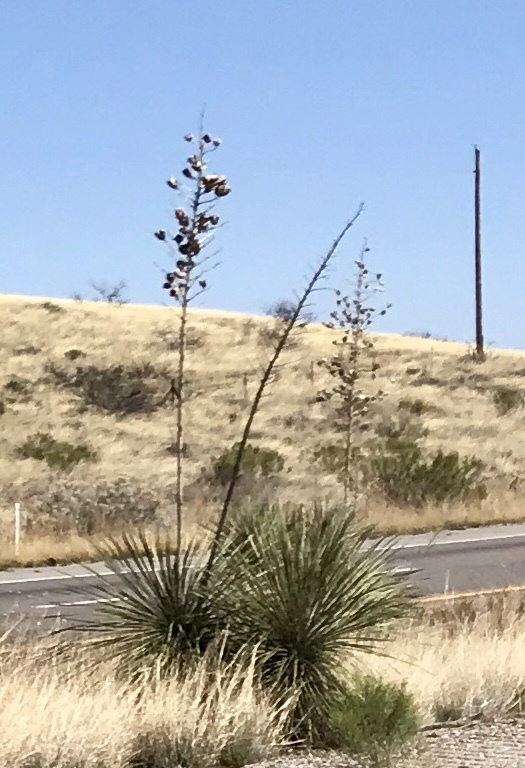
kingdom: Plantae
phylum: Tracheophyta
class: Liliopsida
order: Asparagales
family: Asparagaceae
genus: Yucca
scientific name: Yucca elata
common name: Palmella
